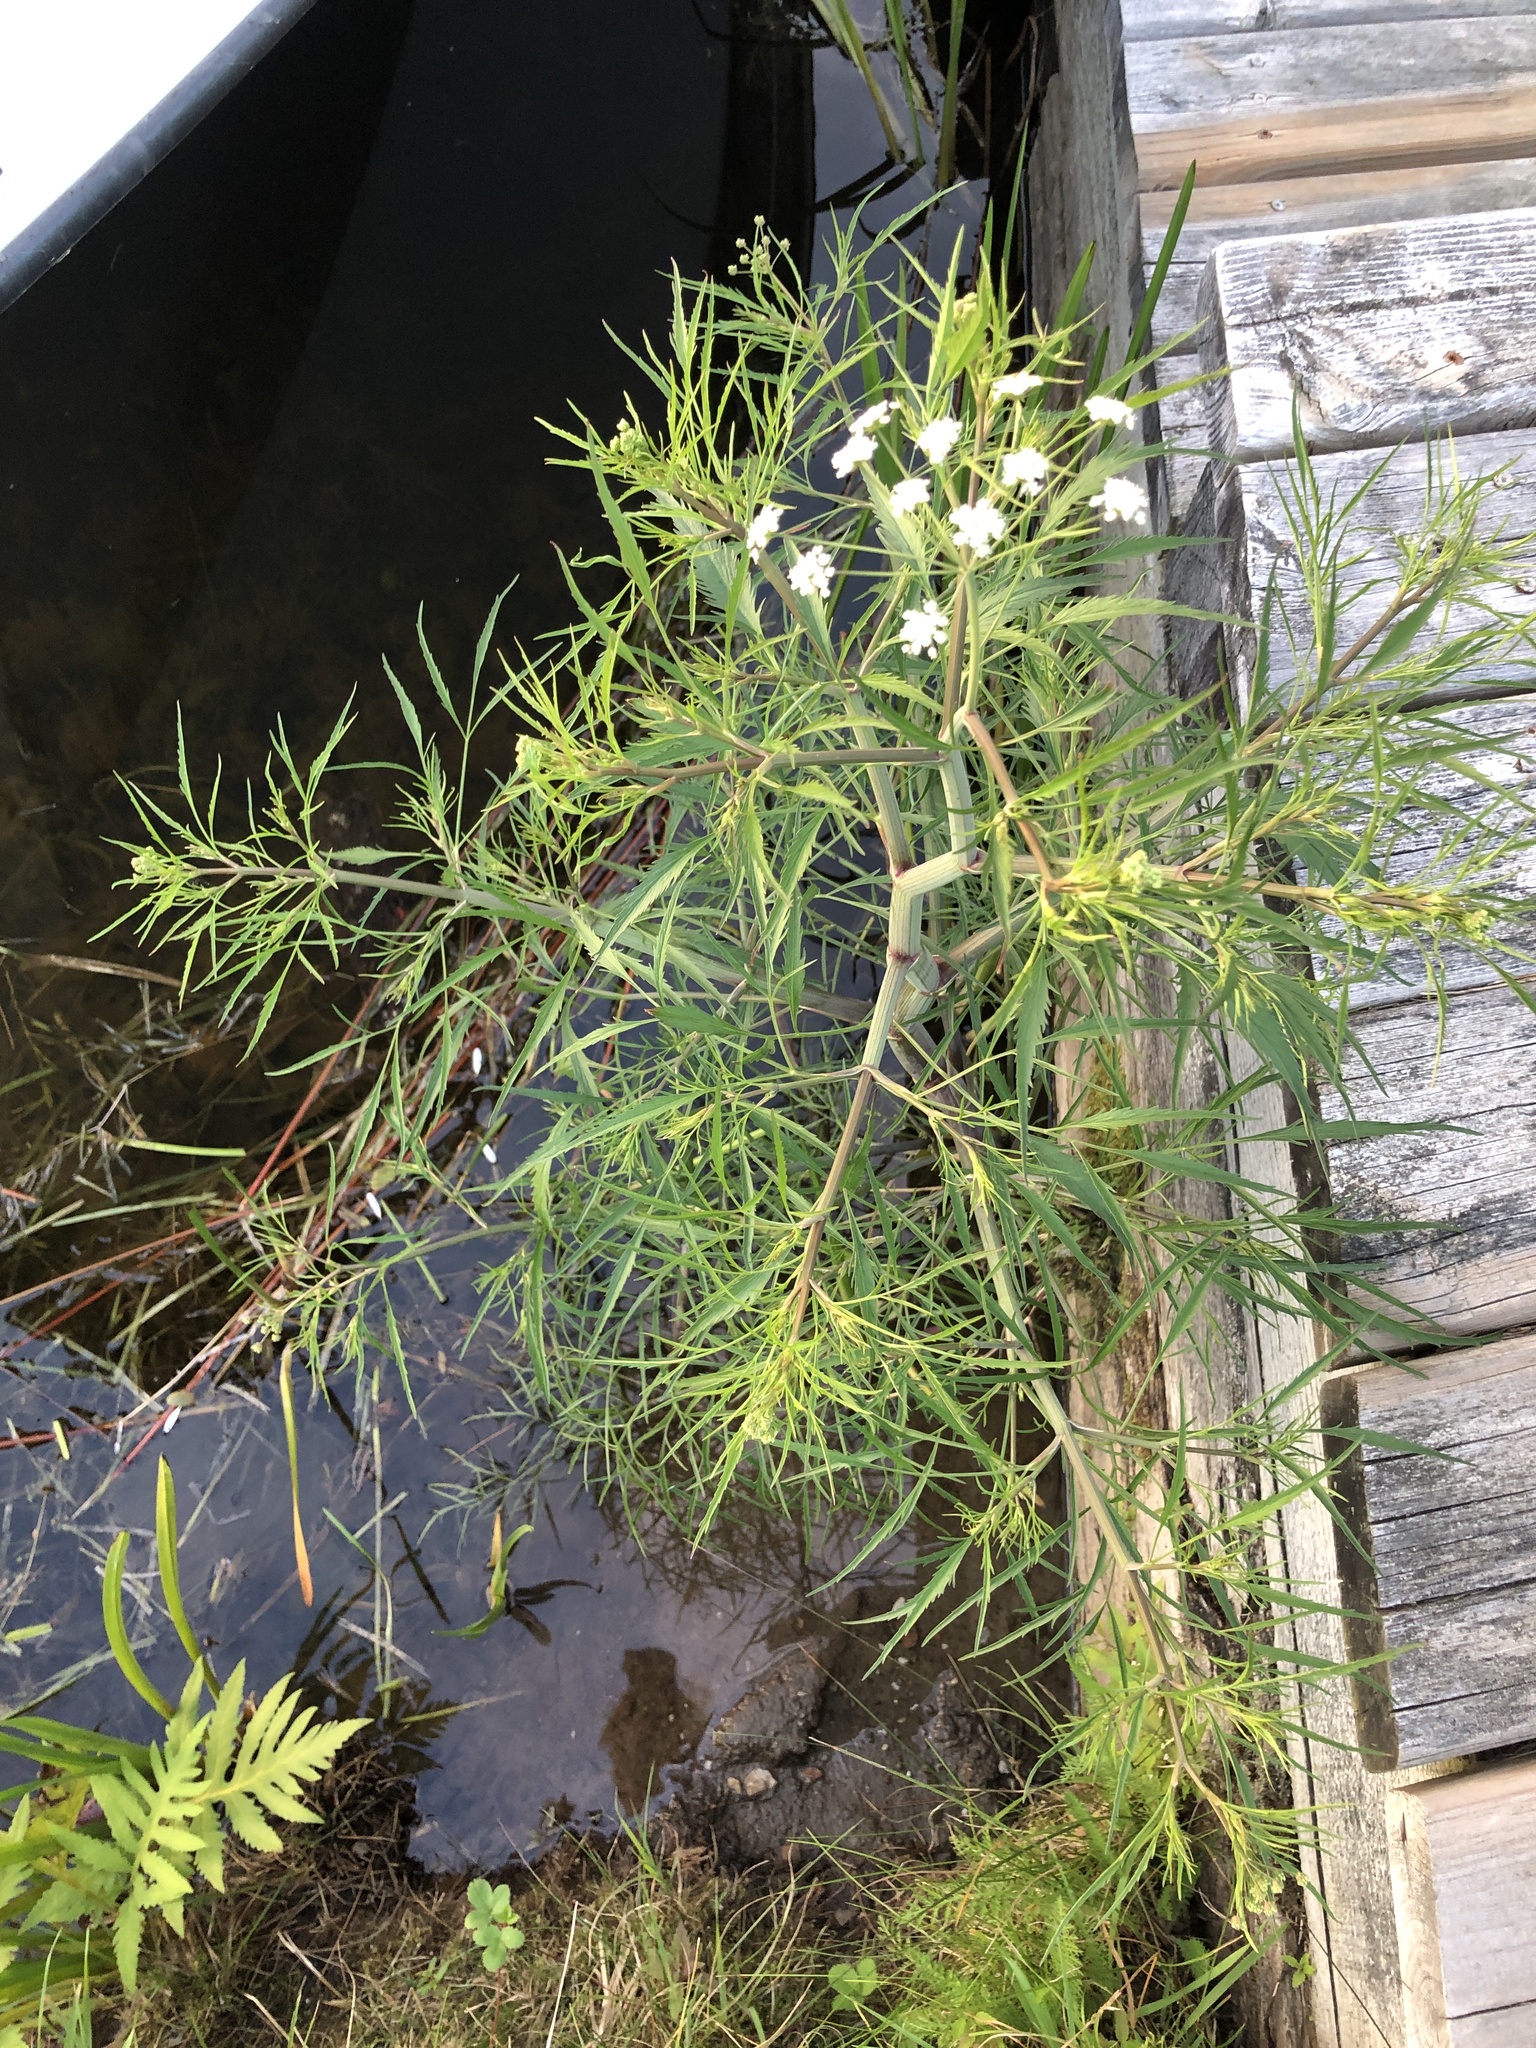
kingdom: Plantae
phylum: Tracheophyta
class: Magnoliopsida
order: Apiales
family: Apiaceae
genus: Cicuta
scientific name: Cicuta bulbifera
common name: Bulb-bearing water-hemlock
